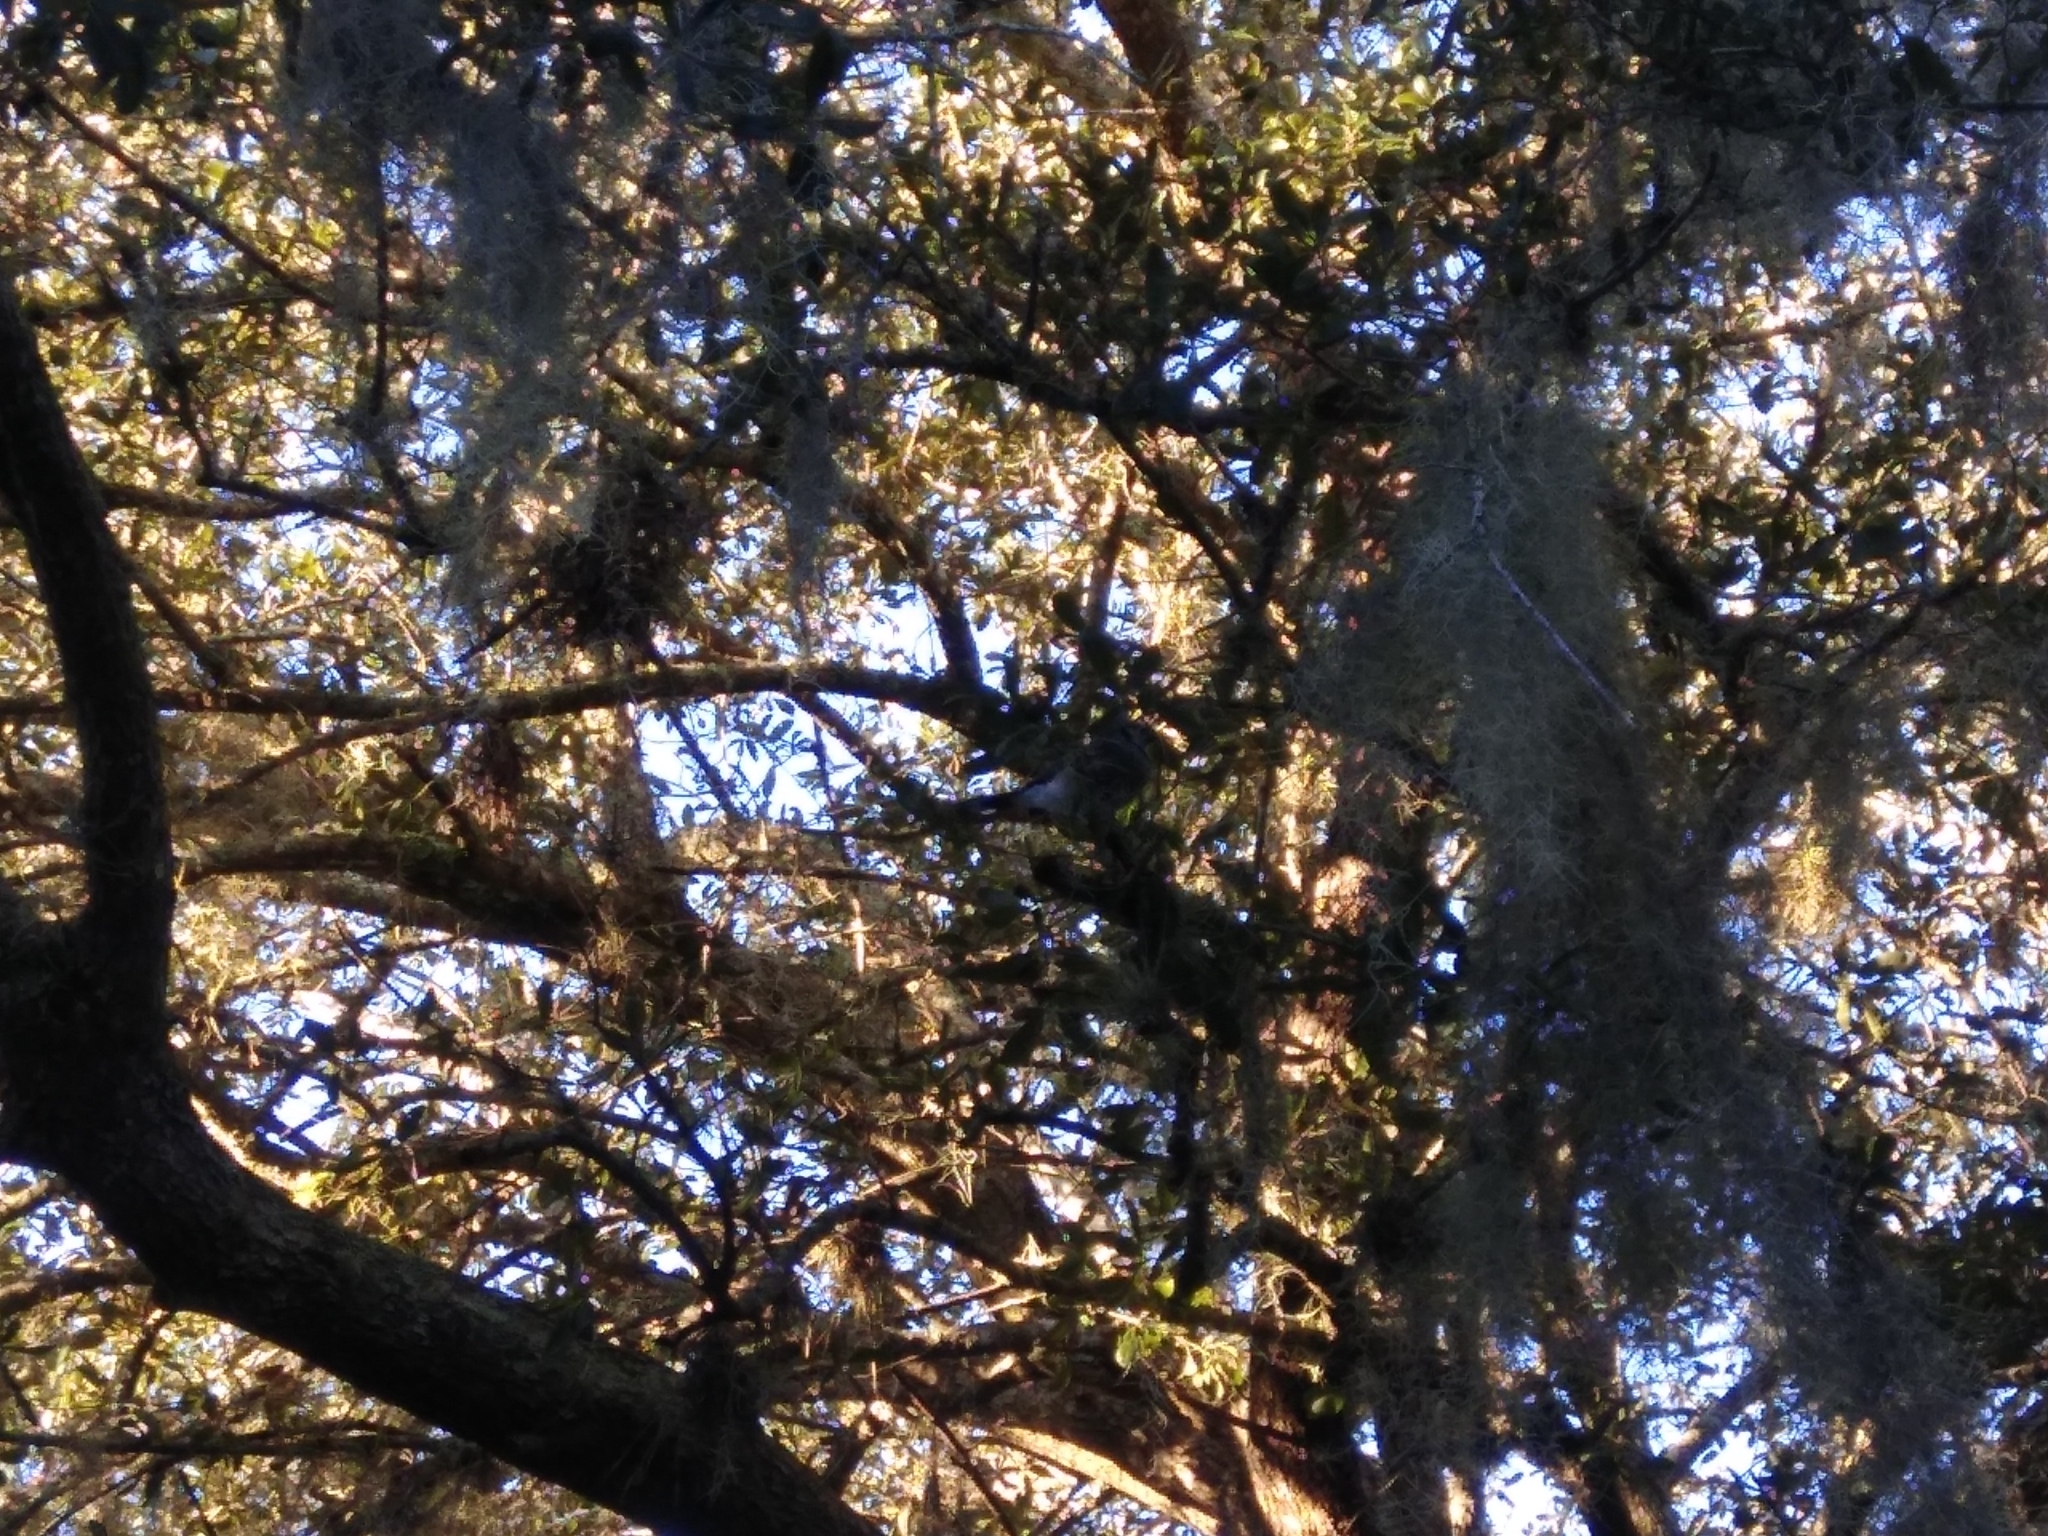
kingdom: Animalia
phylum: Chordata
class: Aves
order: Passeriformes
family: Corvidae
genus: Cyanocitta
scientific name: Cyanocitta cristata
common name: Blue jay
